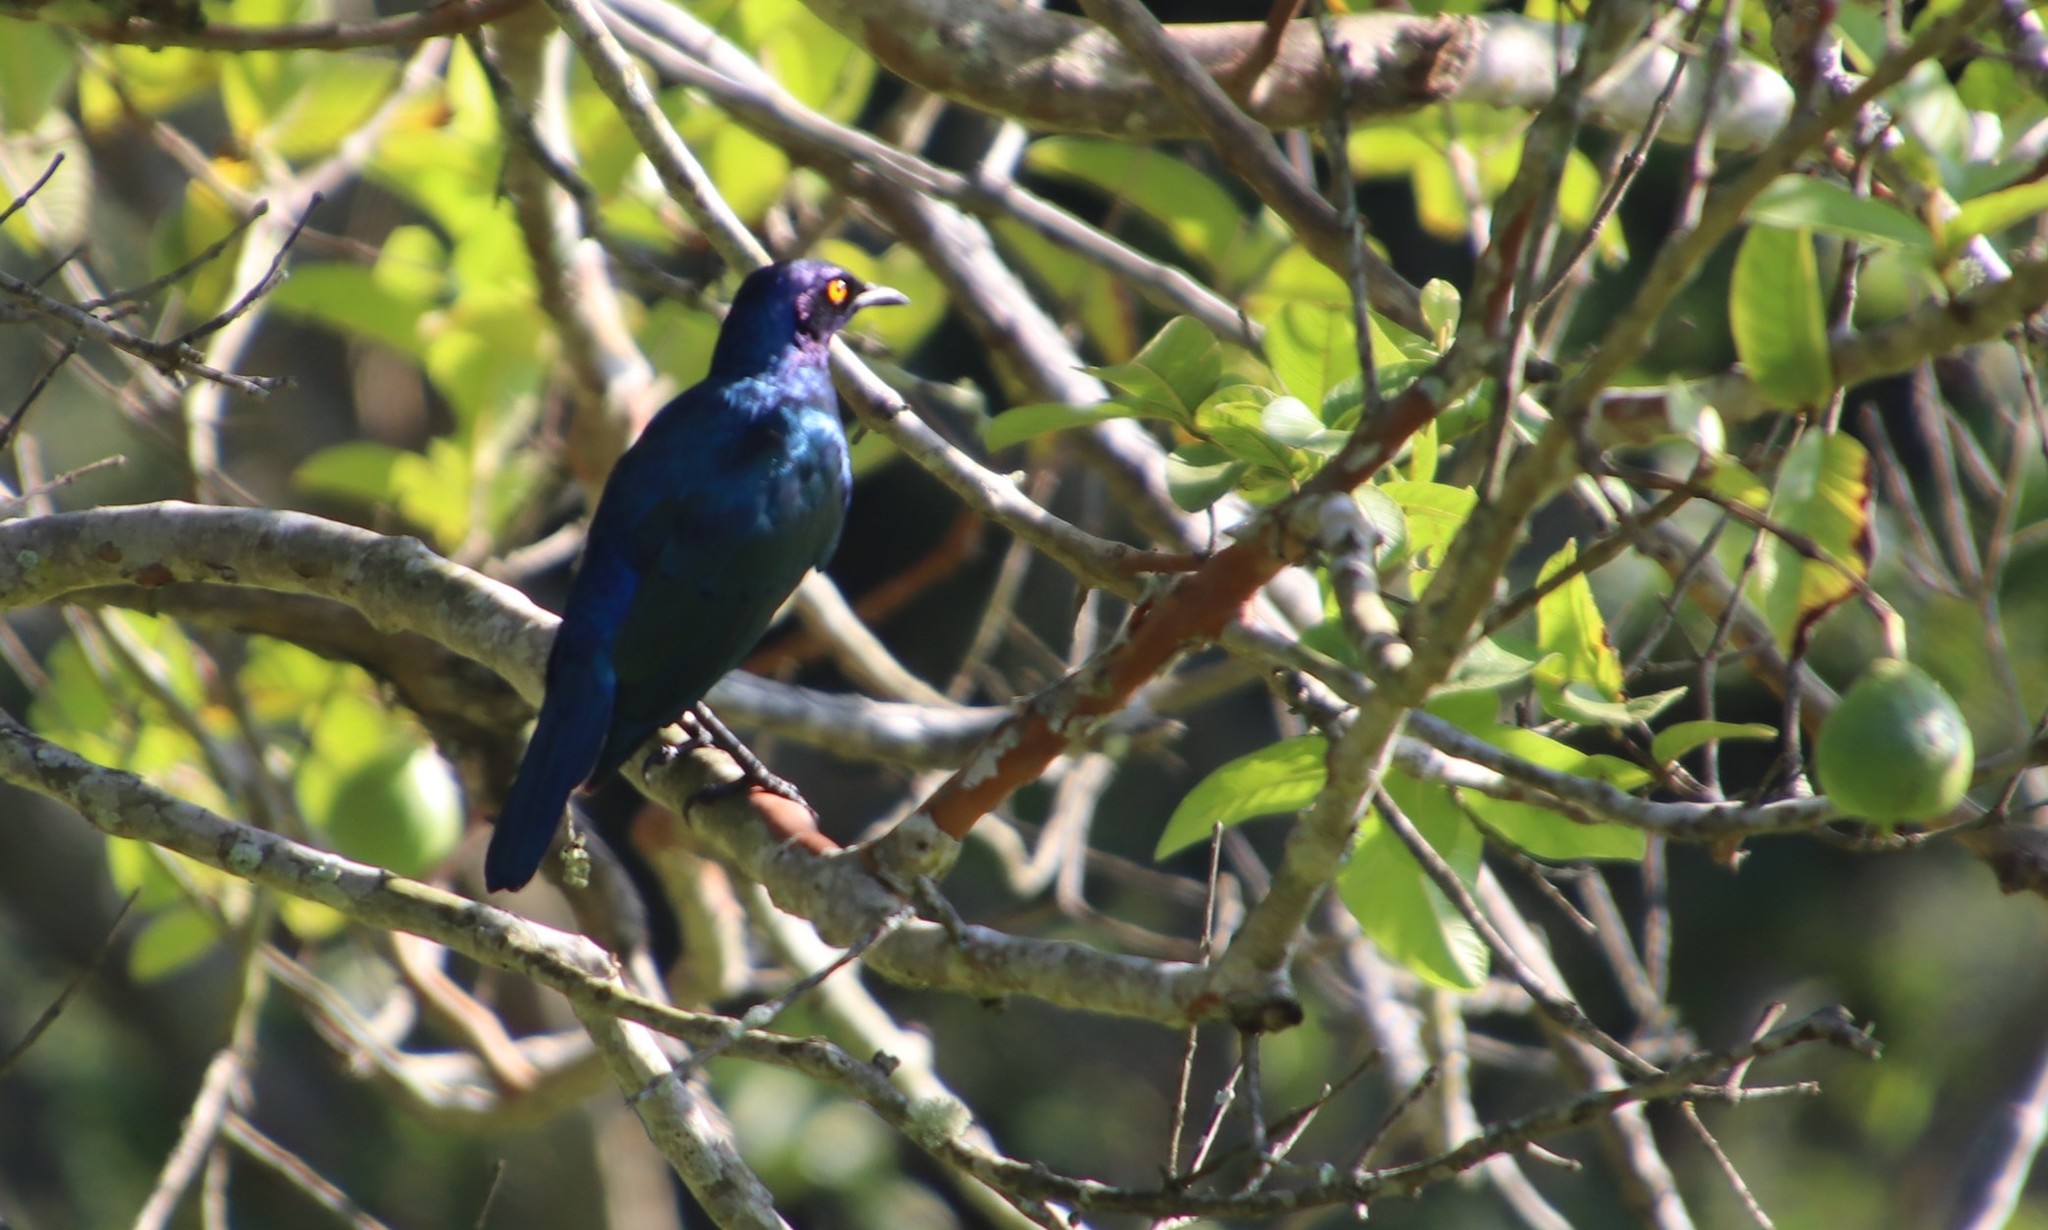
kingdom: Animalia
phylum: Chordata
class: Aves
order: Passeriformes
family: Sturnidae
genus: Lamprotornis
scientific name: Lamprotornis nitens
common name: Cape starling
